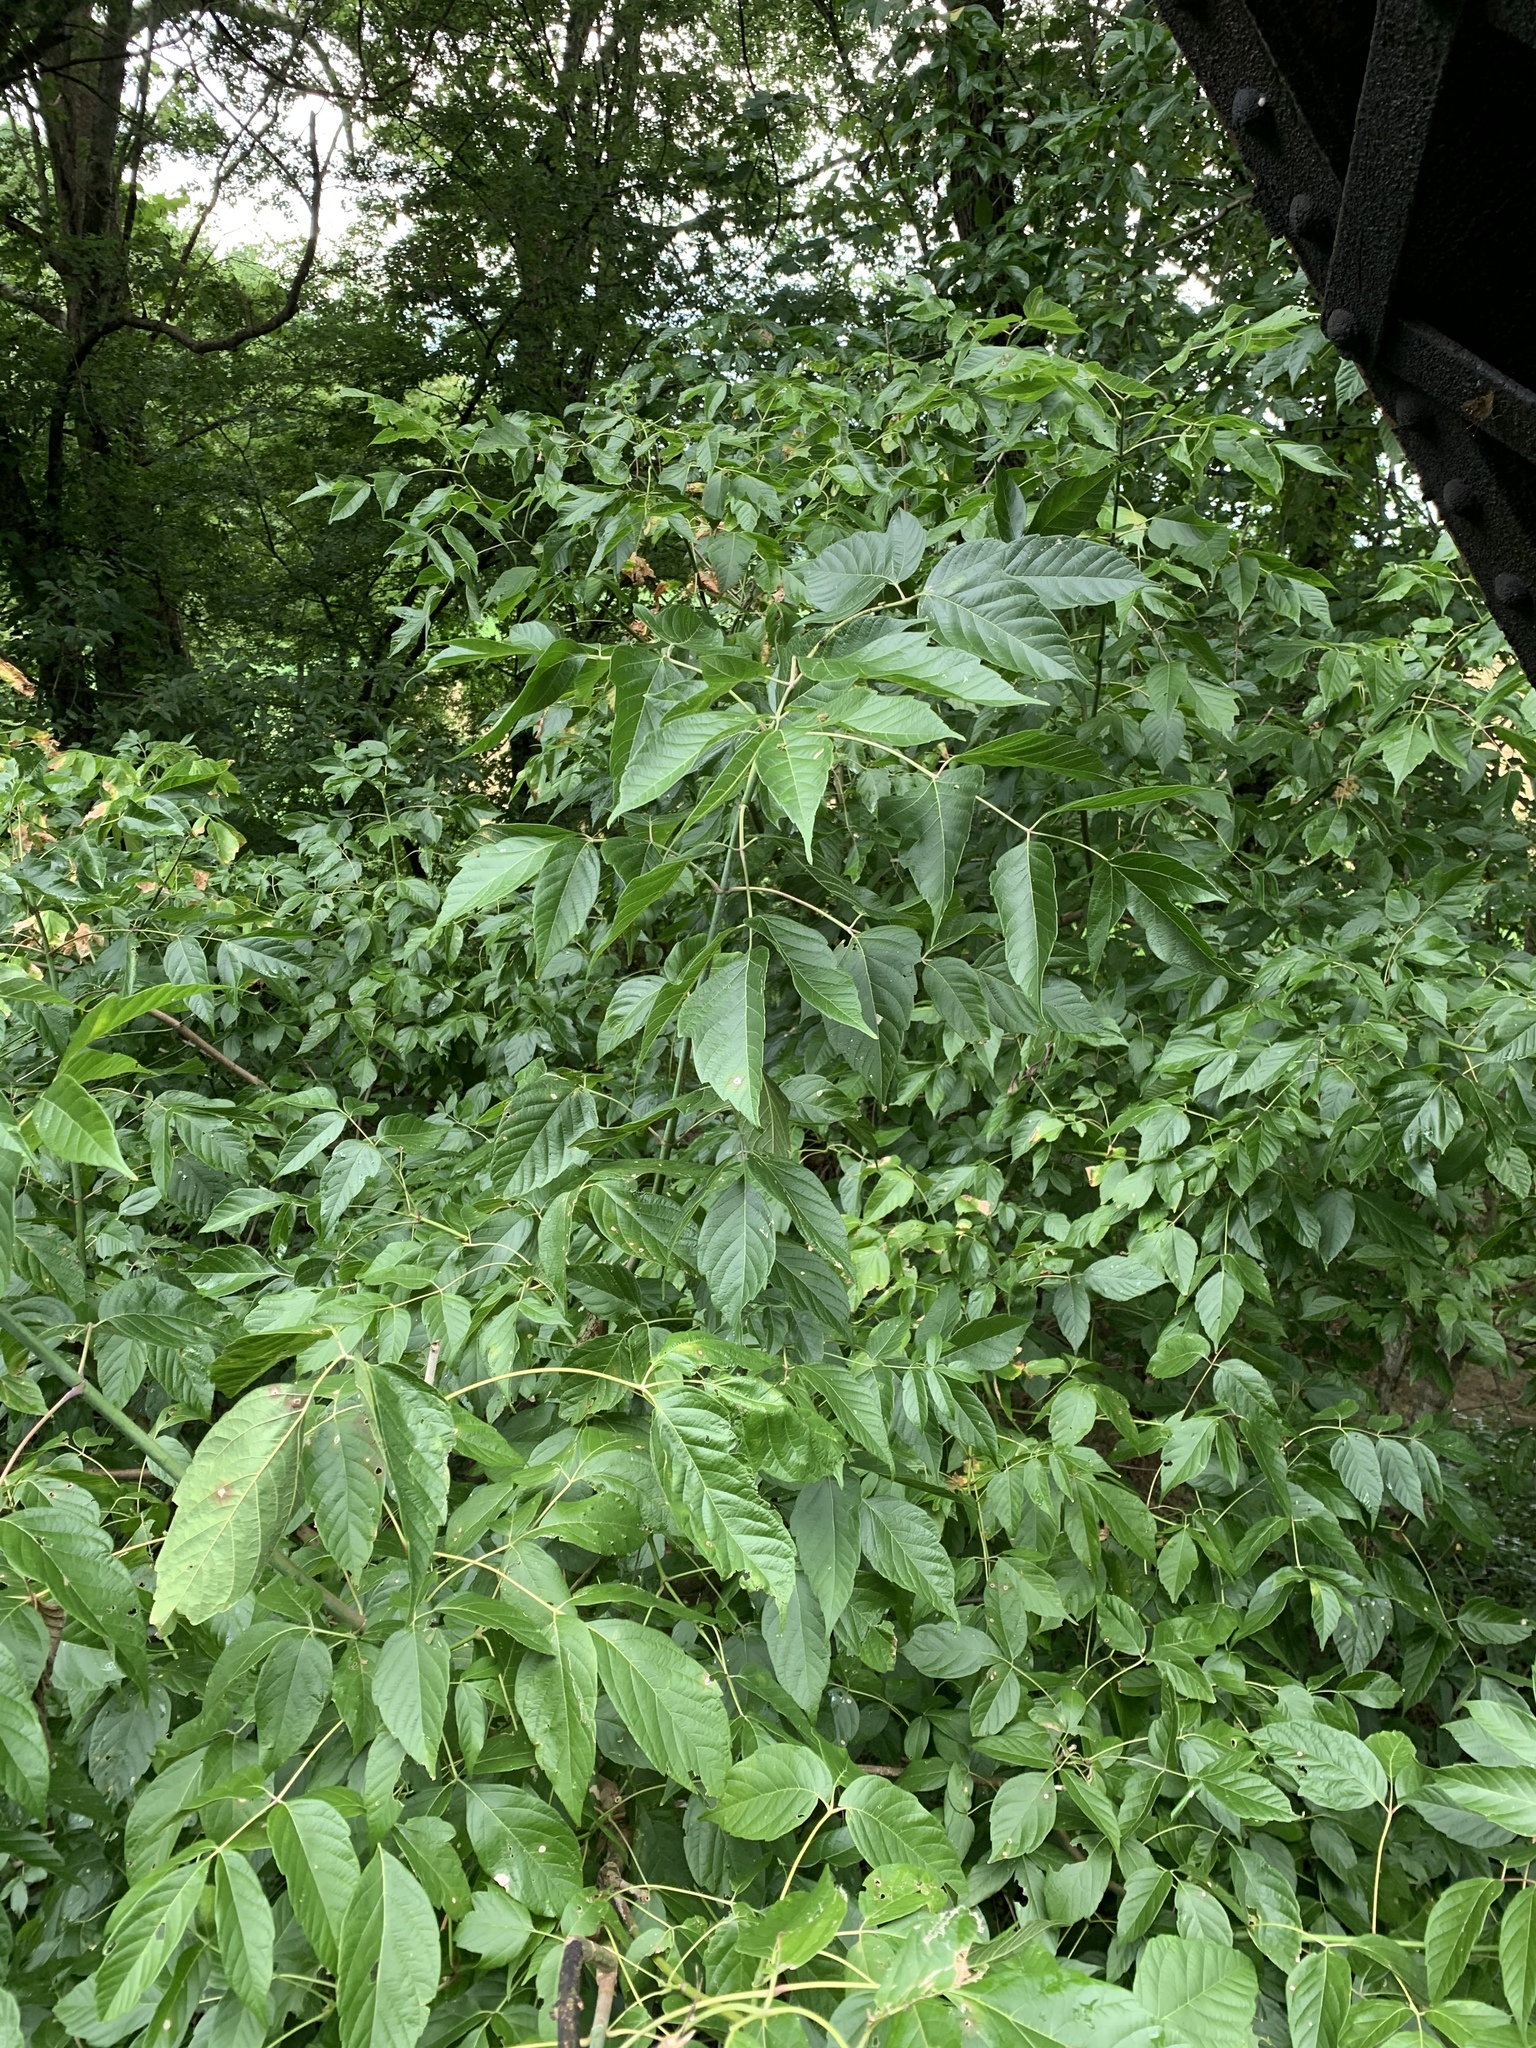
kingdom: Plantae
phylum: Tracheophyta
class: Magnoliopsida
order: Sapindales
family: Sapindaceae
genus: Acer
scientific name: Acer negundo
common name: Ashleaf maple
